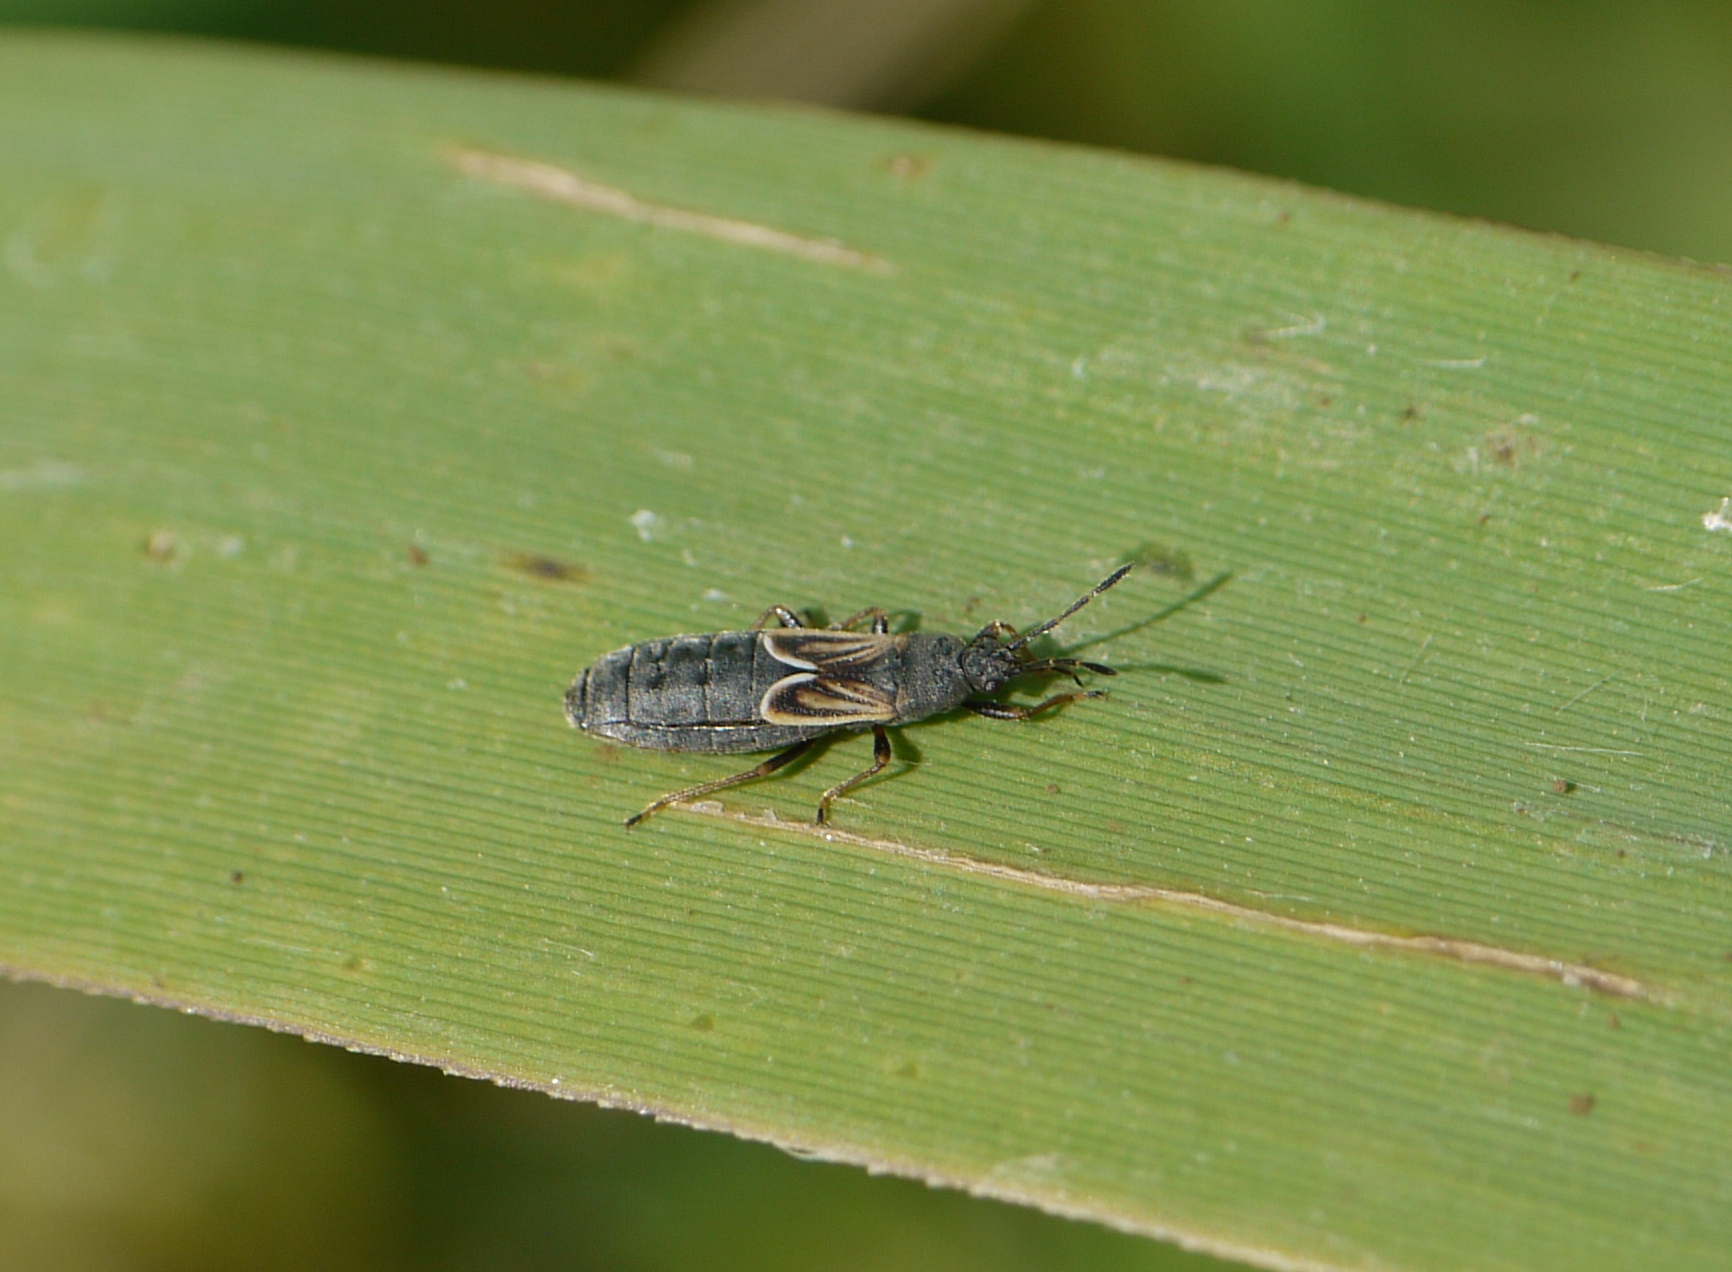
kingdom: Animalia
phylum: Arthropoda
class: Insecta
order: Hemiptera
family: Blissidae
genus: Ischnodemus
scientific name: Ischnodemus sabuleti
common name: European cinchbug
